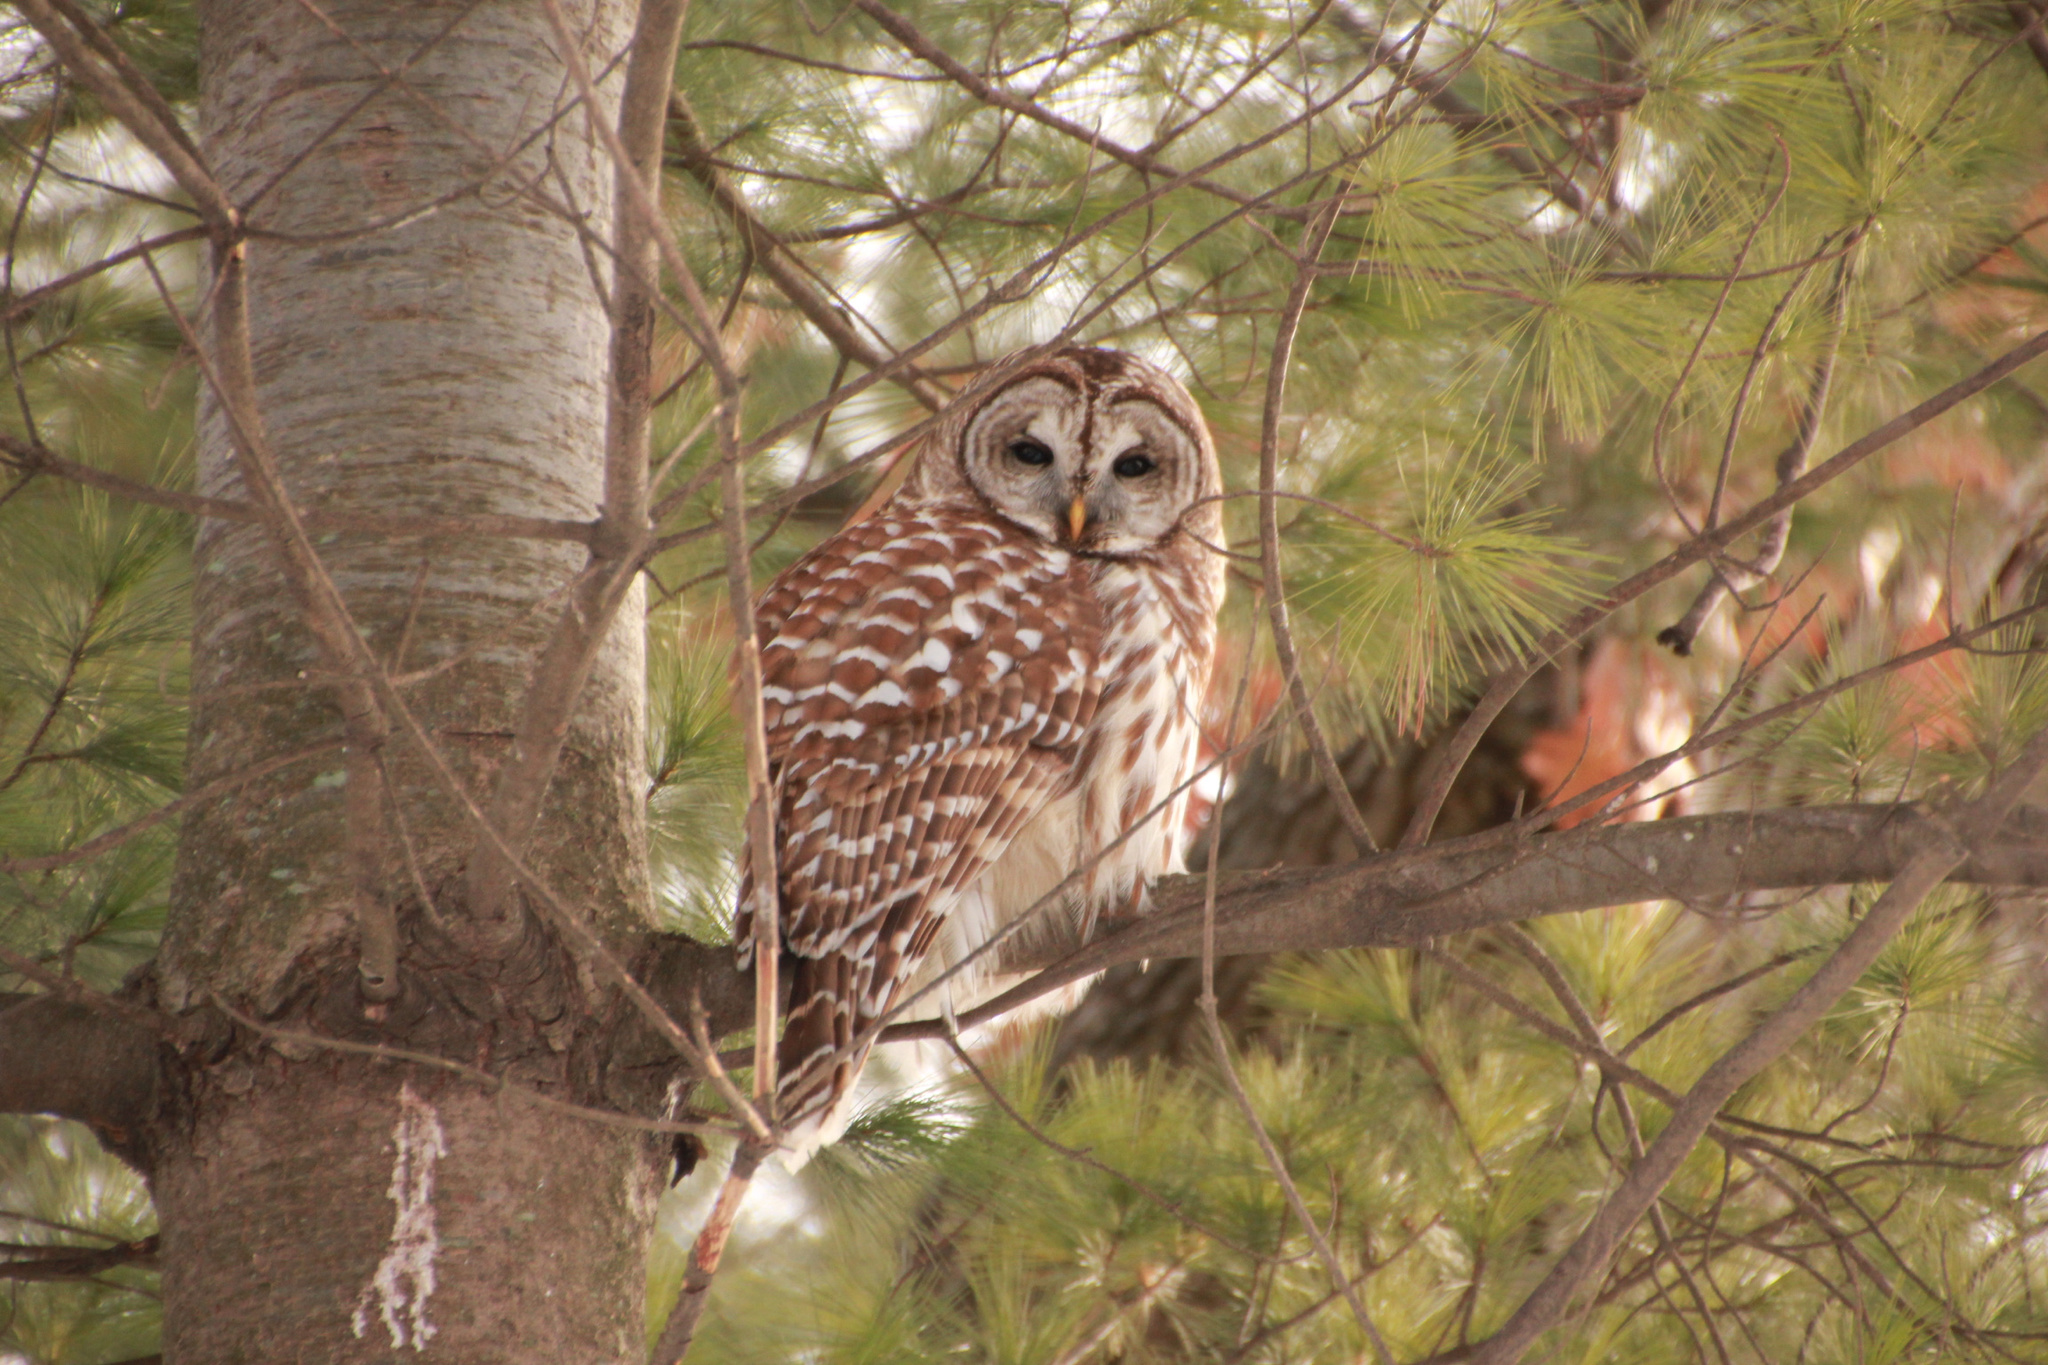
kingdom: Animalia
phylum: Chordata
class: Aves
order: Strigiformes
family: Strigidae
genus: Strix
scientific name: Strix varia
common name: Barred owl
